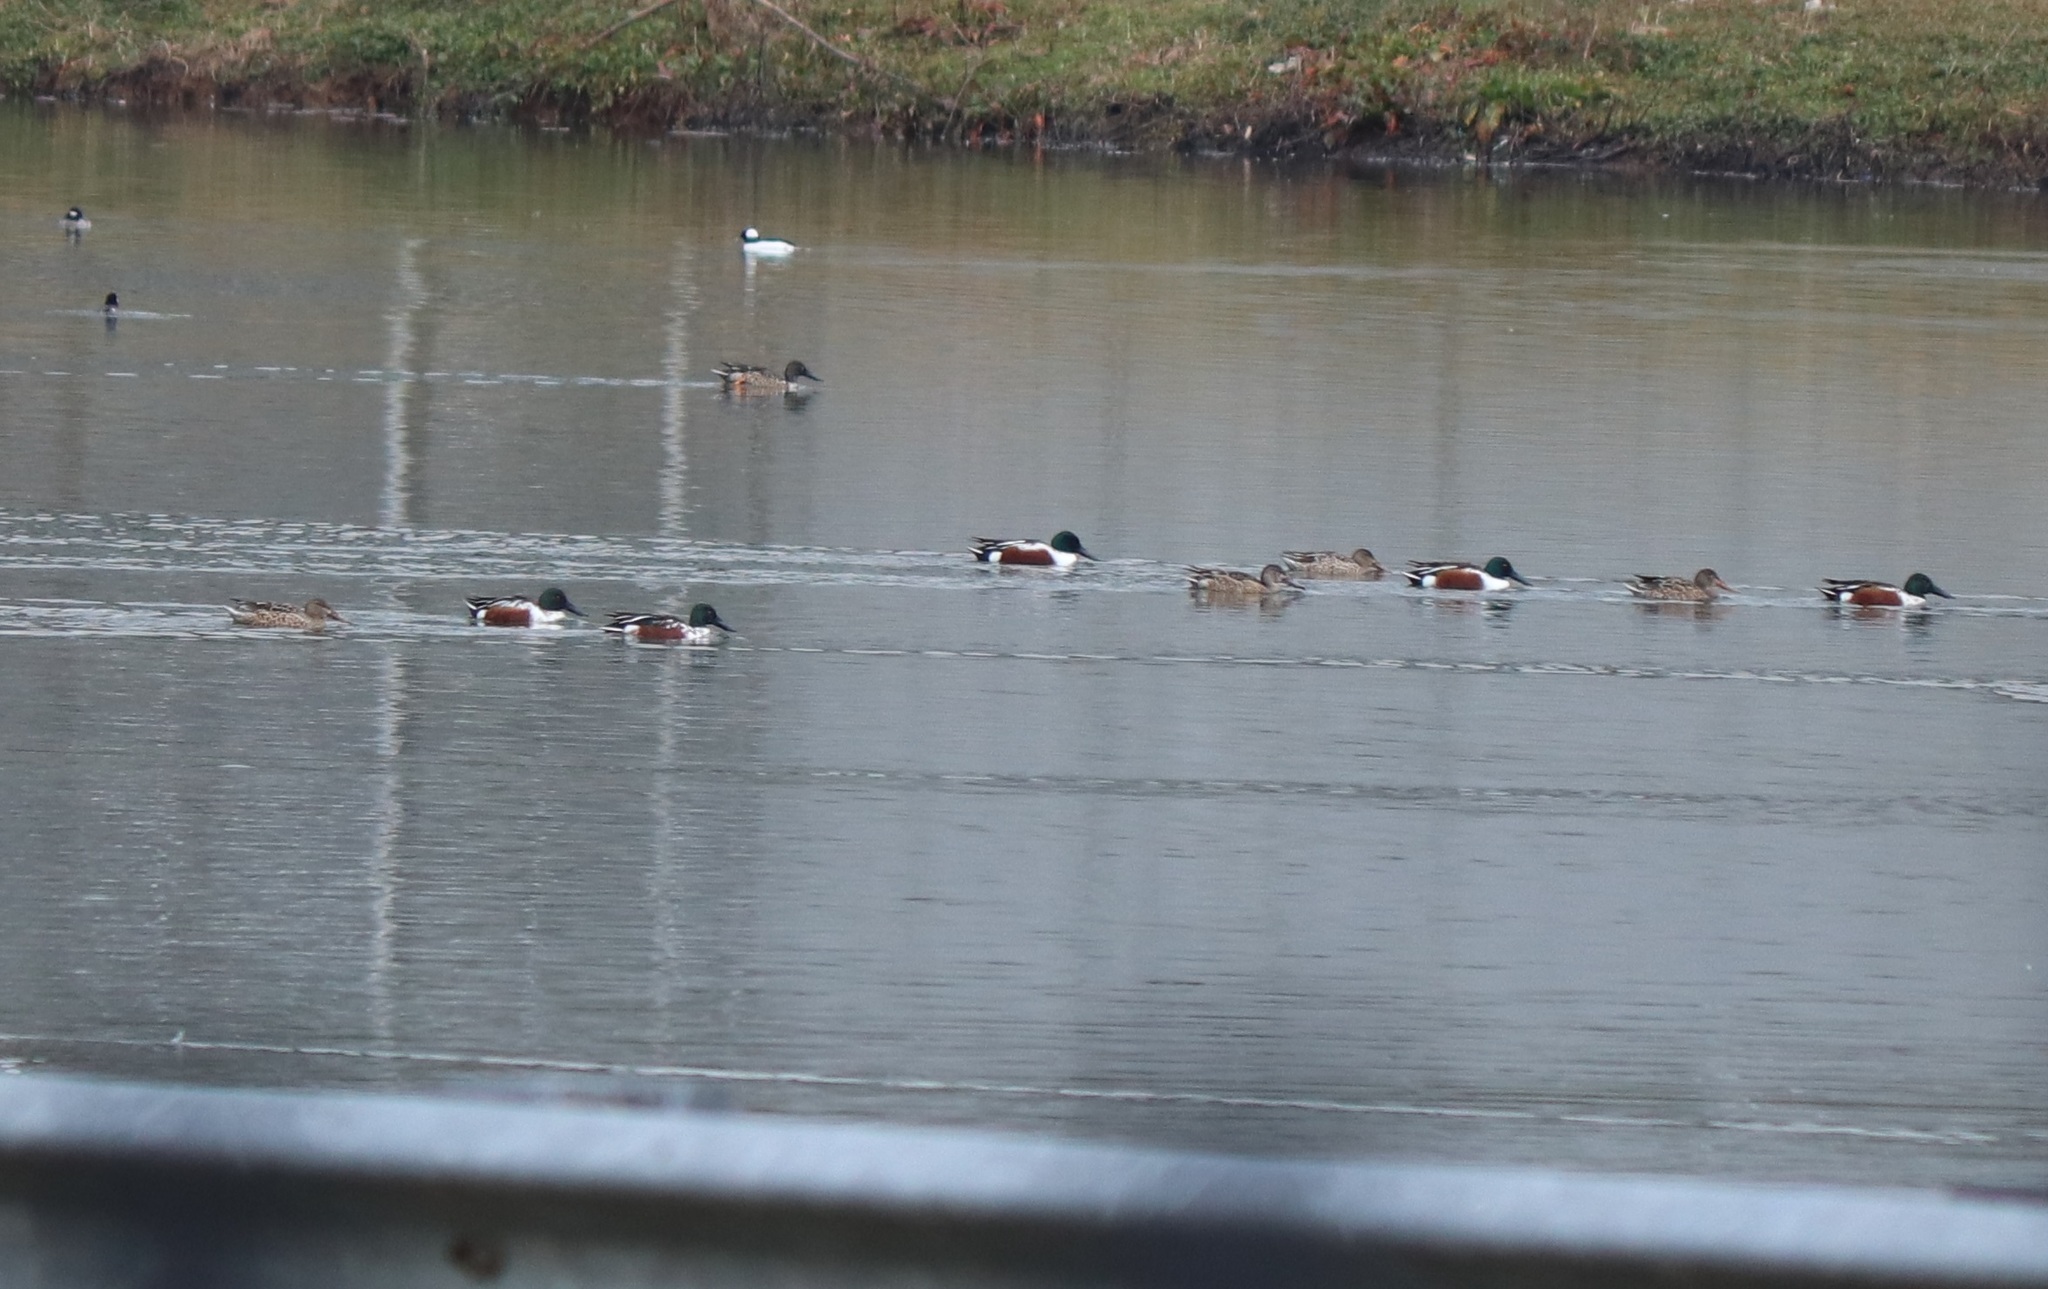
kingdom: Animalia
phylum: Chordata
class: Aves
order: Anseriformes
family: Anatidae
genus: Spatula
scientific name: Spatula clypeata
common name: Northern shoveler
